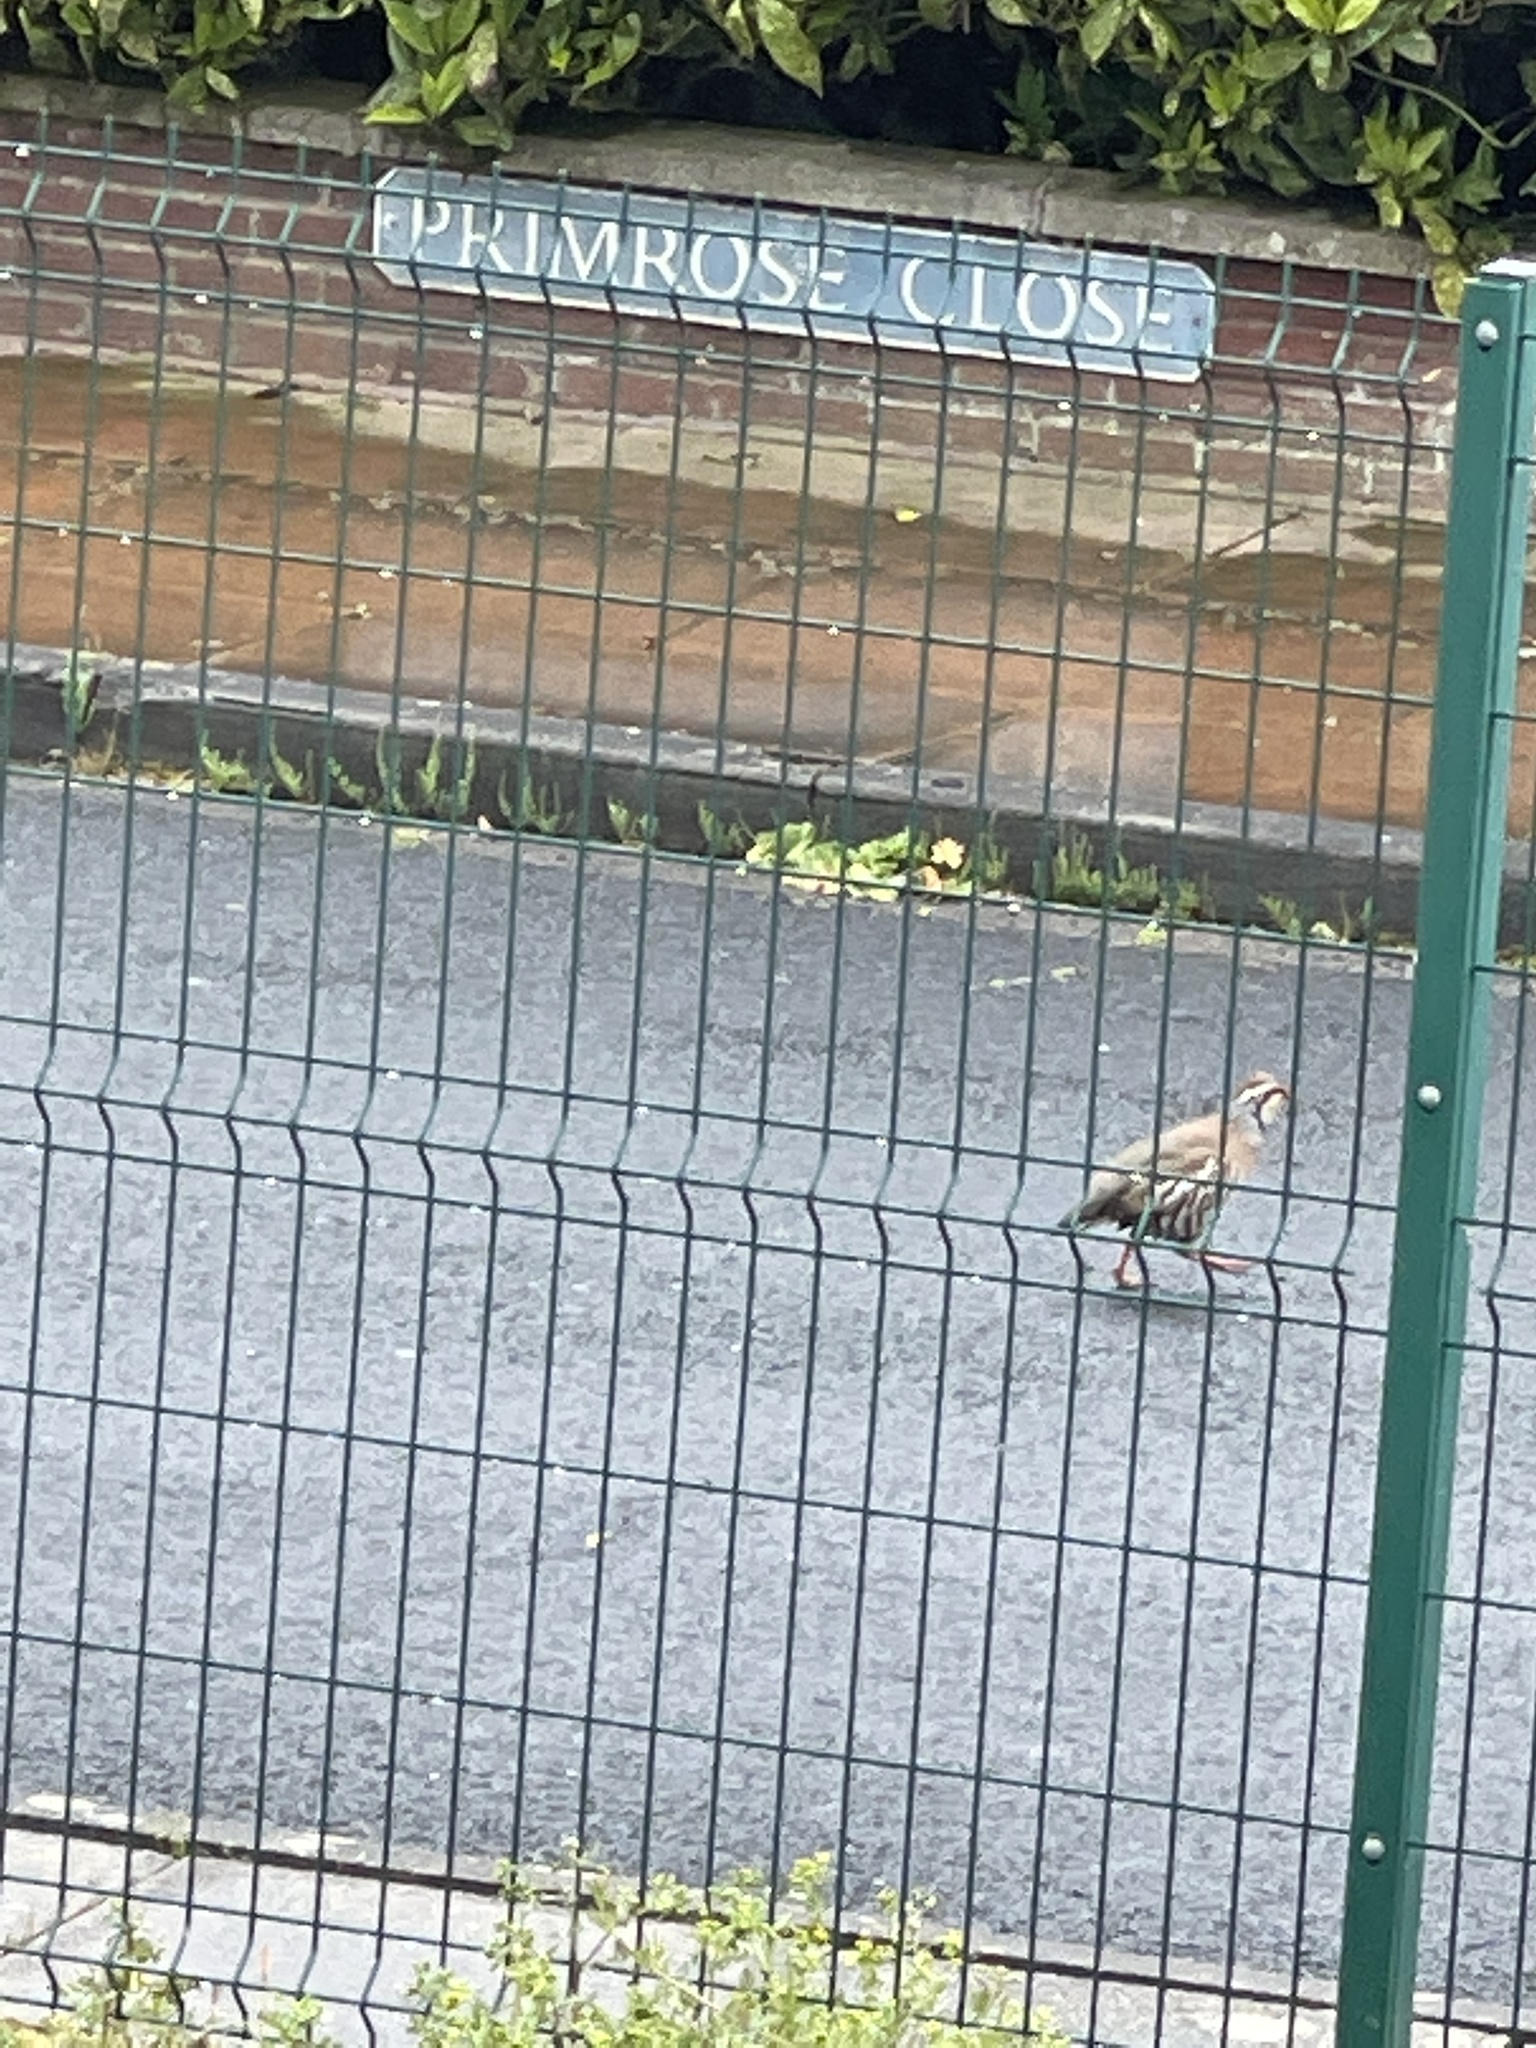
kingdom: Animalia
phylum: Chordata
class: Aves
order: Galliformes
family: Phasianidae
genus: Alectoris
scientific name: Alectoris rufa
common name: Red-legged partridge
